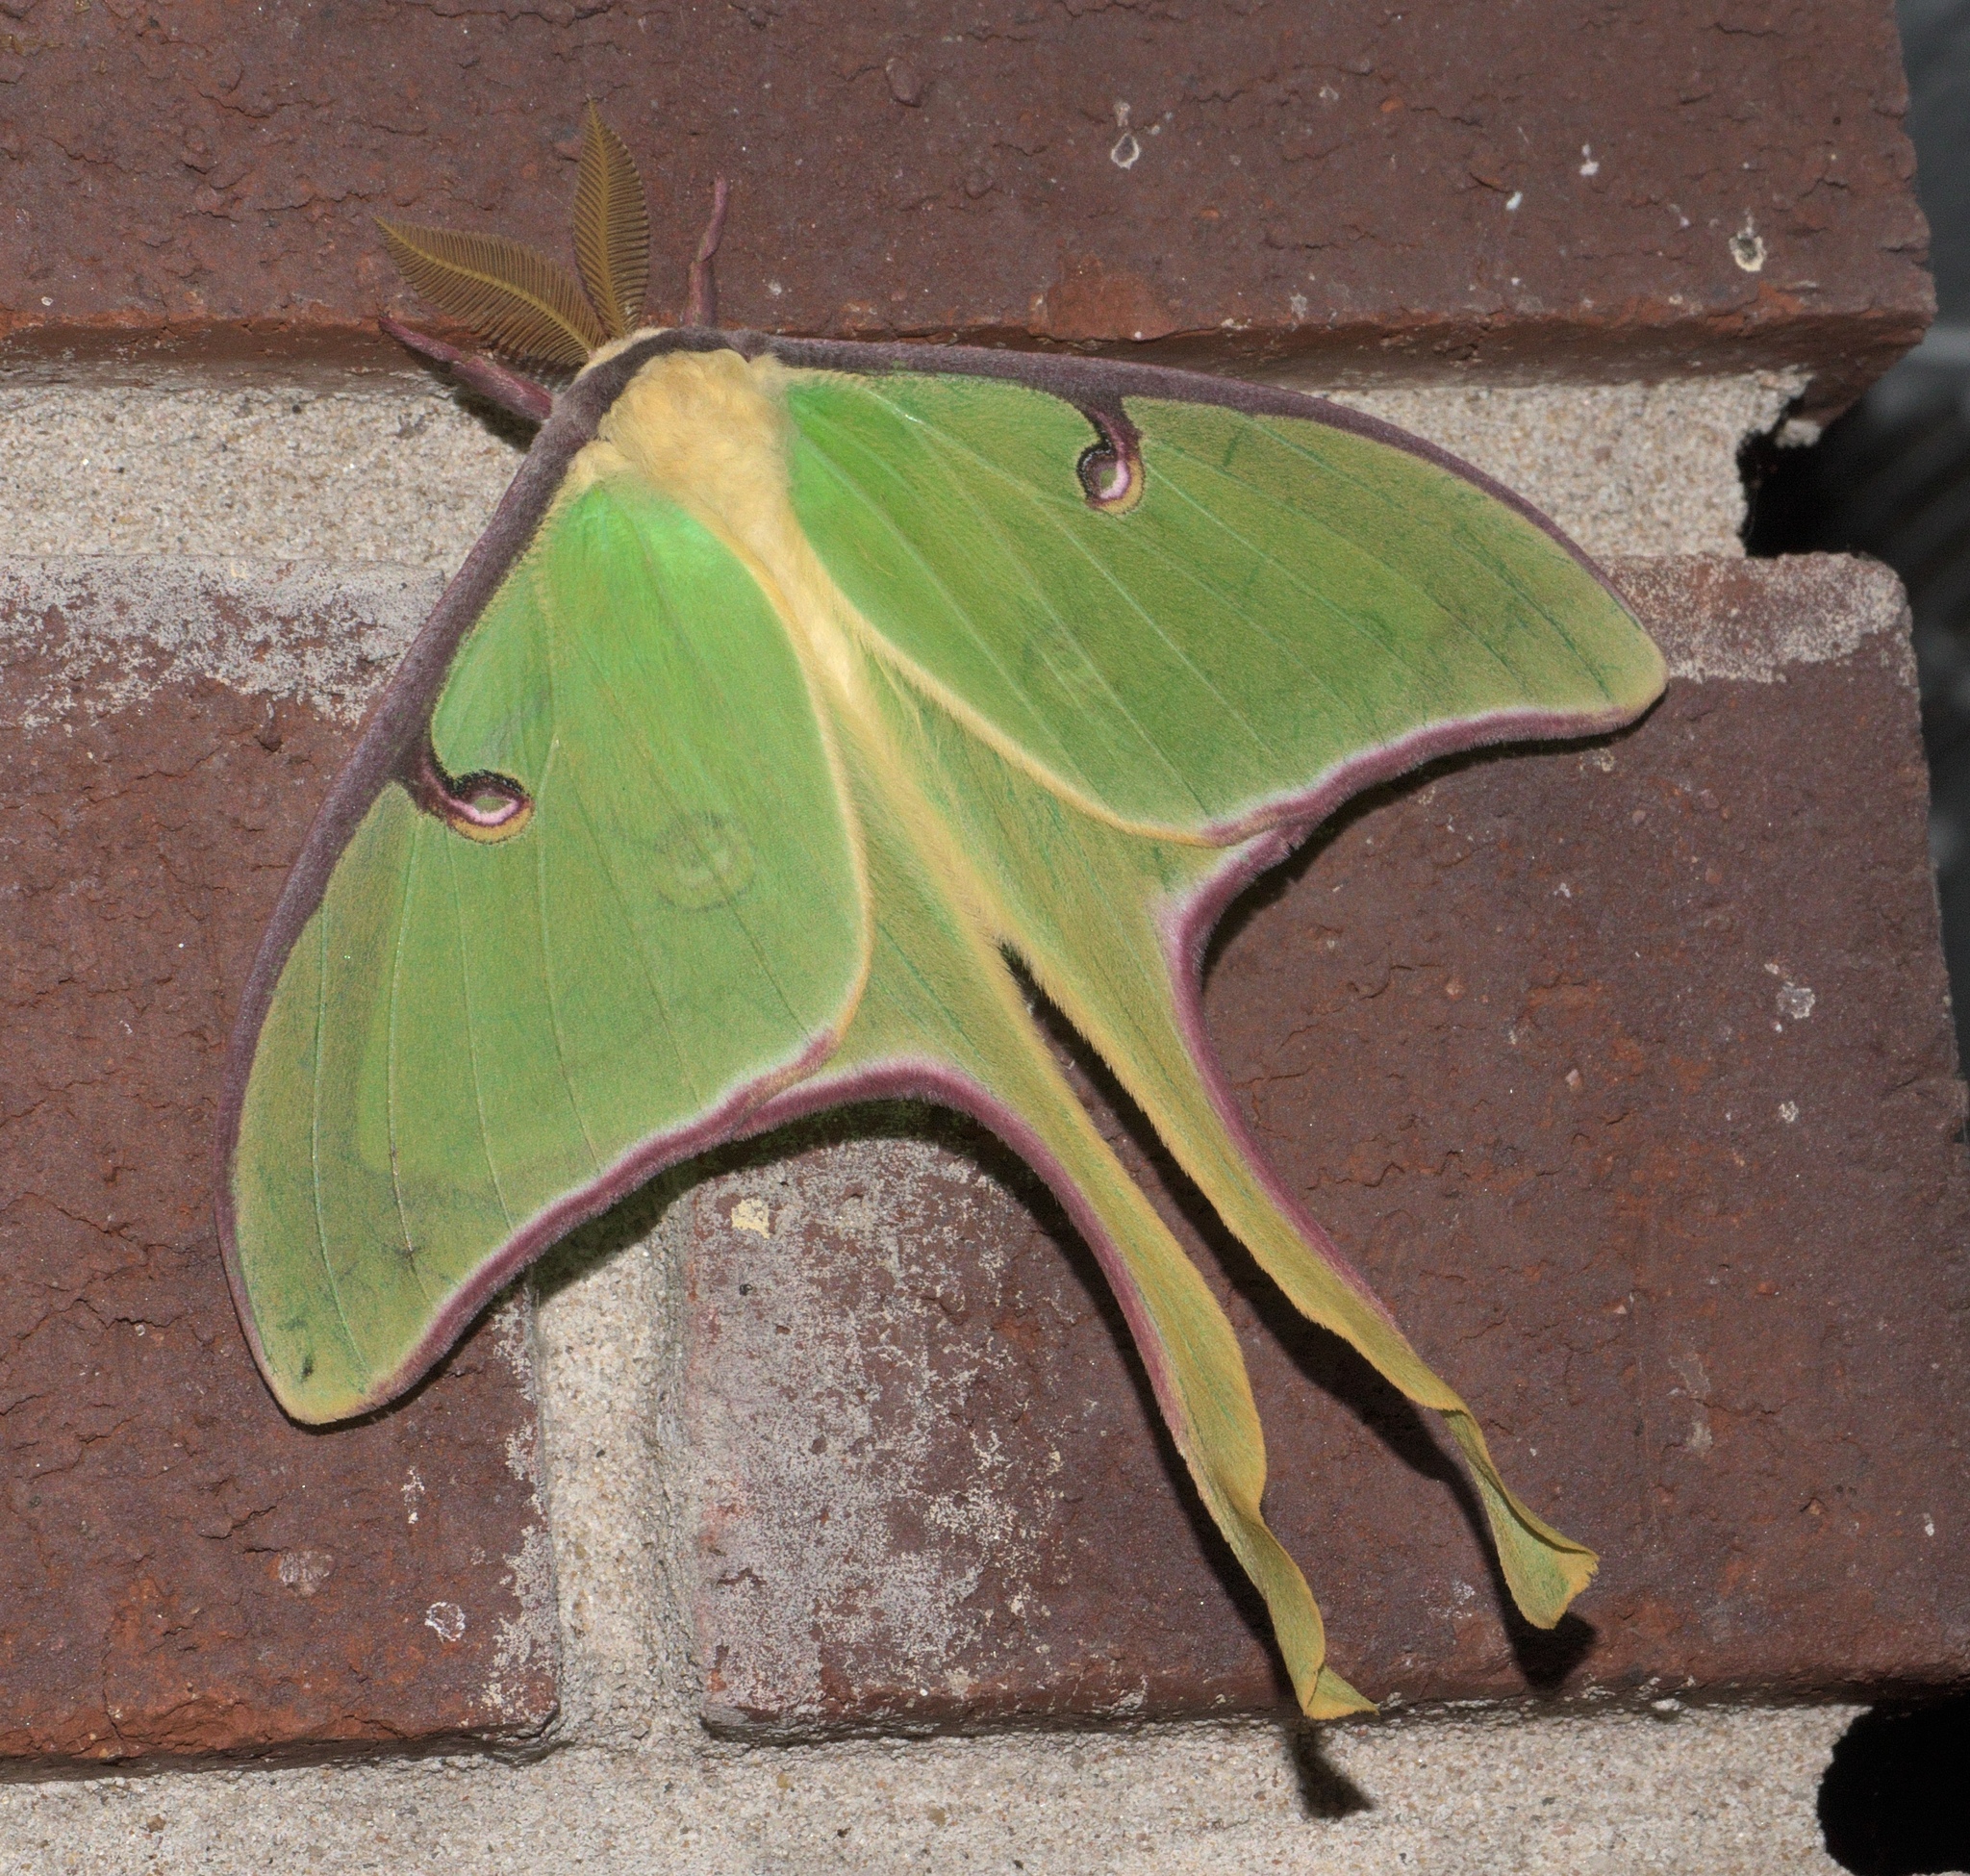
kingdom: Animalia
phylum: Arthropoda
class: Insecta
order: Lepidoptera
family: Saturniidae
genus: Actias
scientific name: Actias luna
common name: Luna moth
